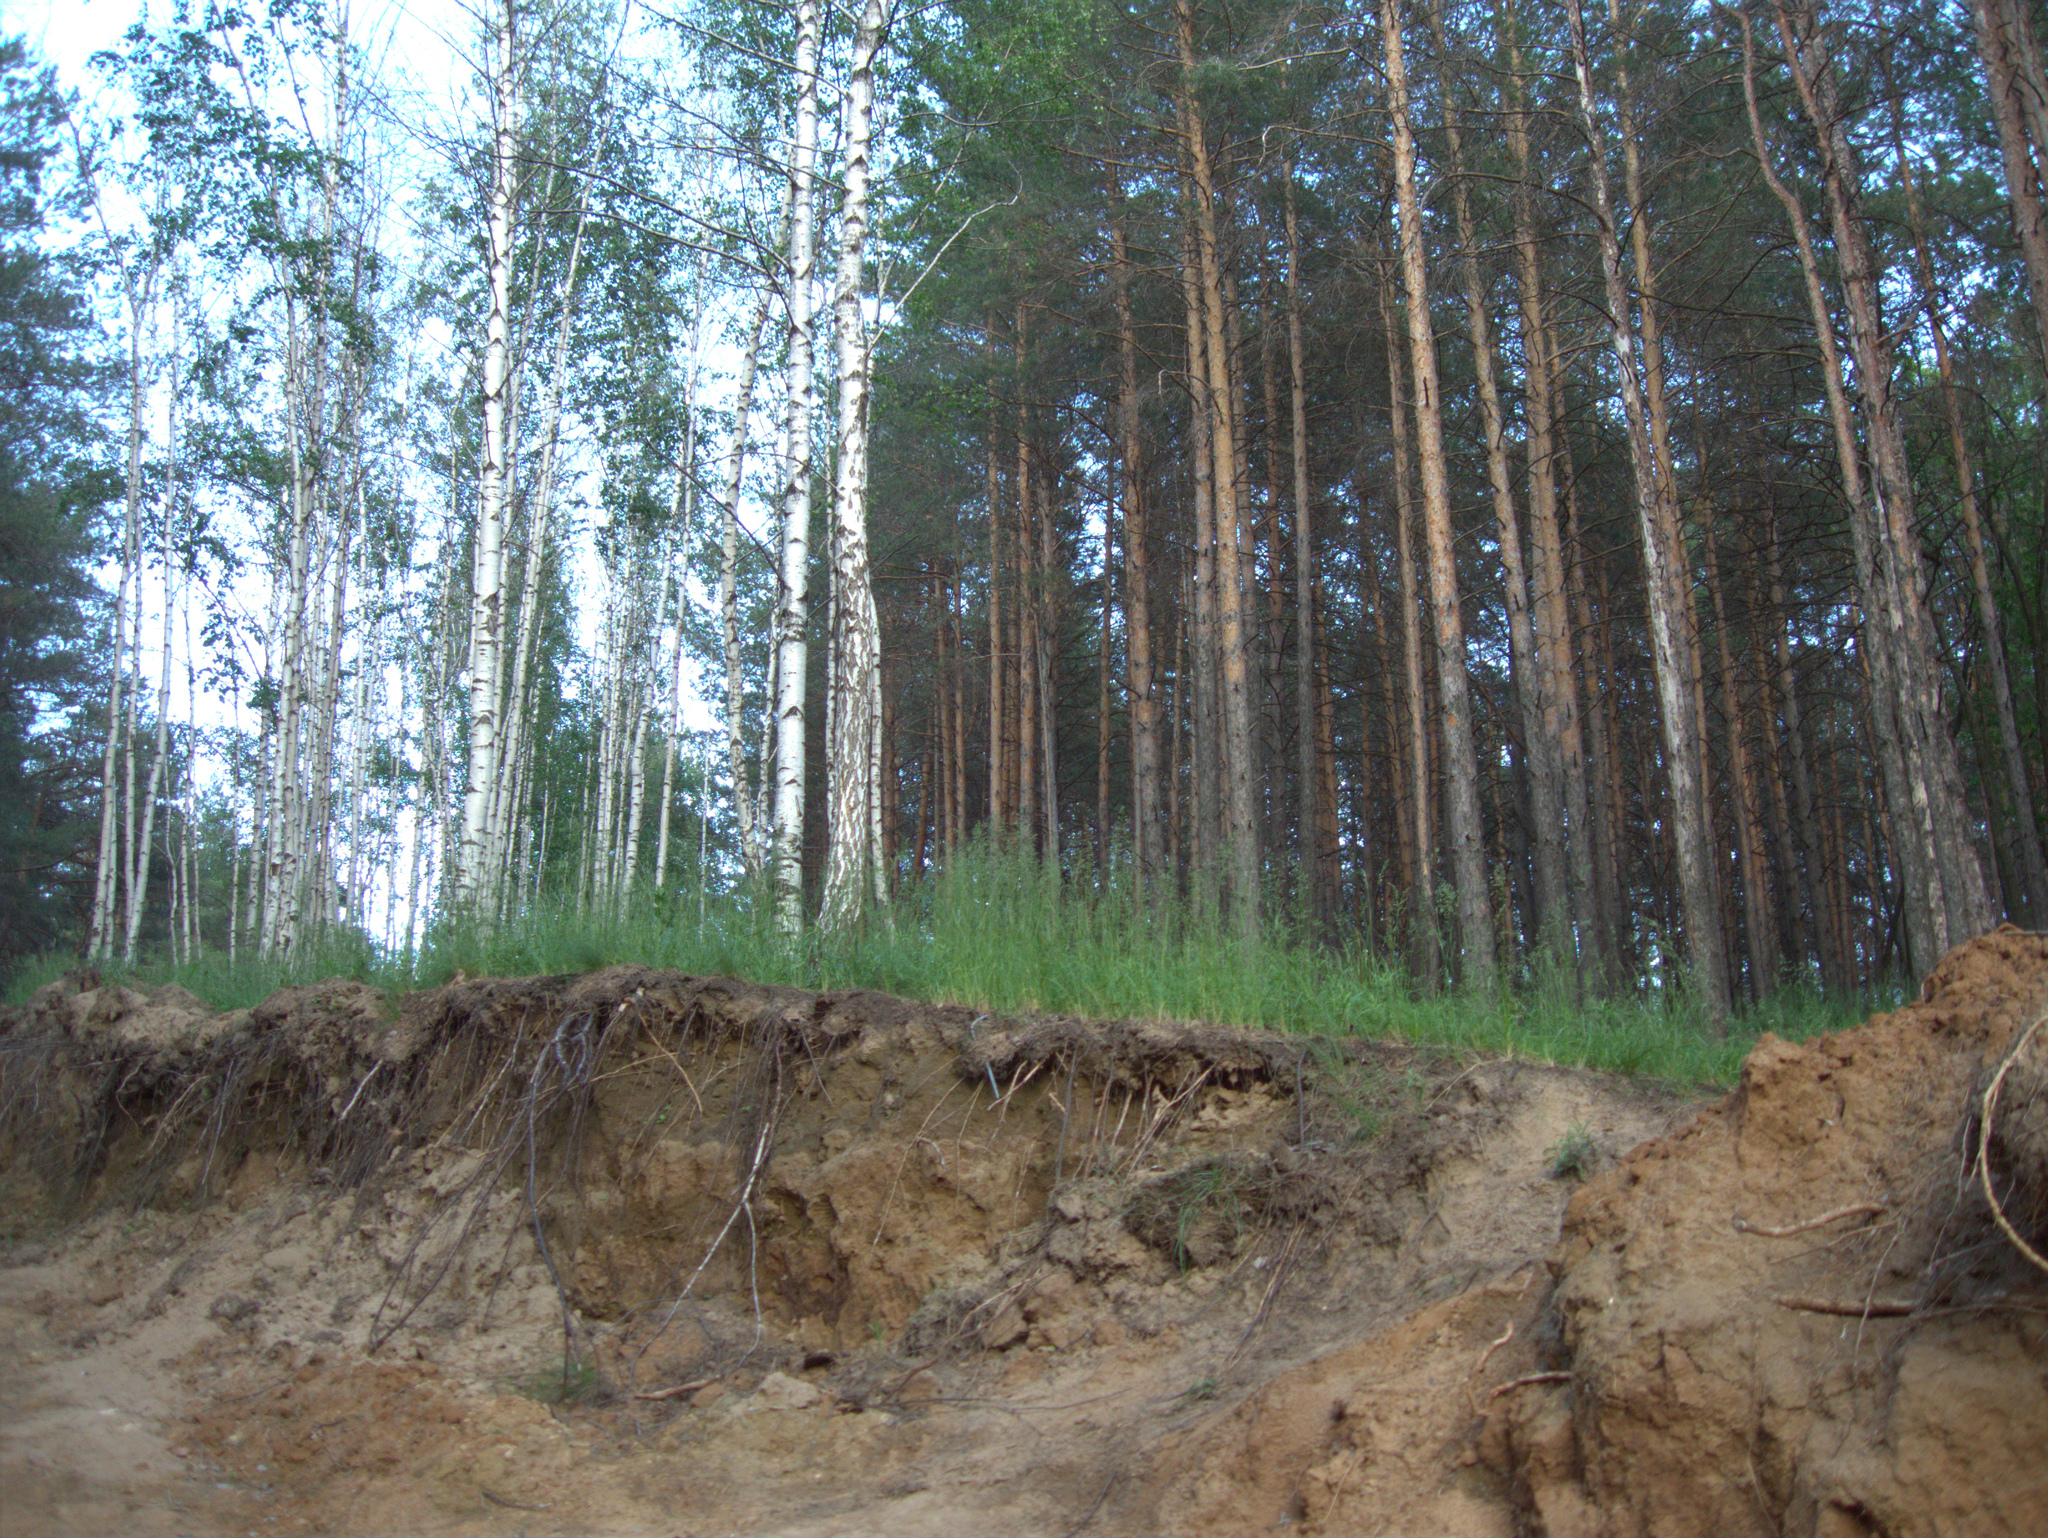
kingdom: Plantae
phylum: Tracheophyta
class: Magnoliopsida
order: Fagales
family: Betulaceae
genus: Betula
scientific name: Betula pendula
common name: Silver birch
